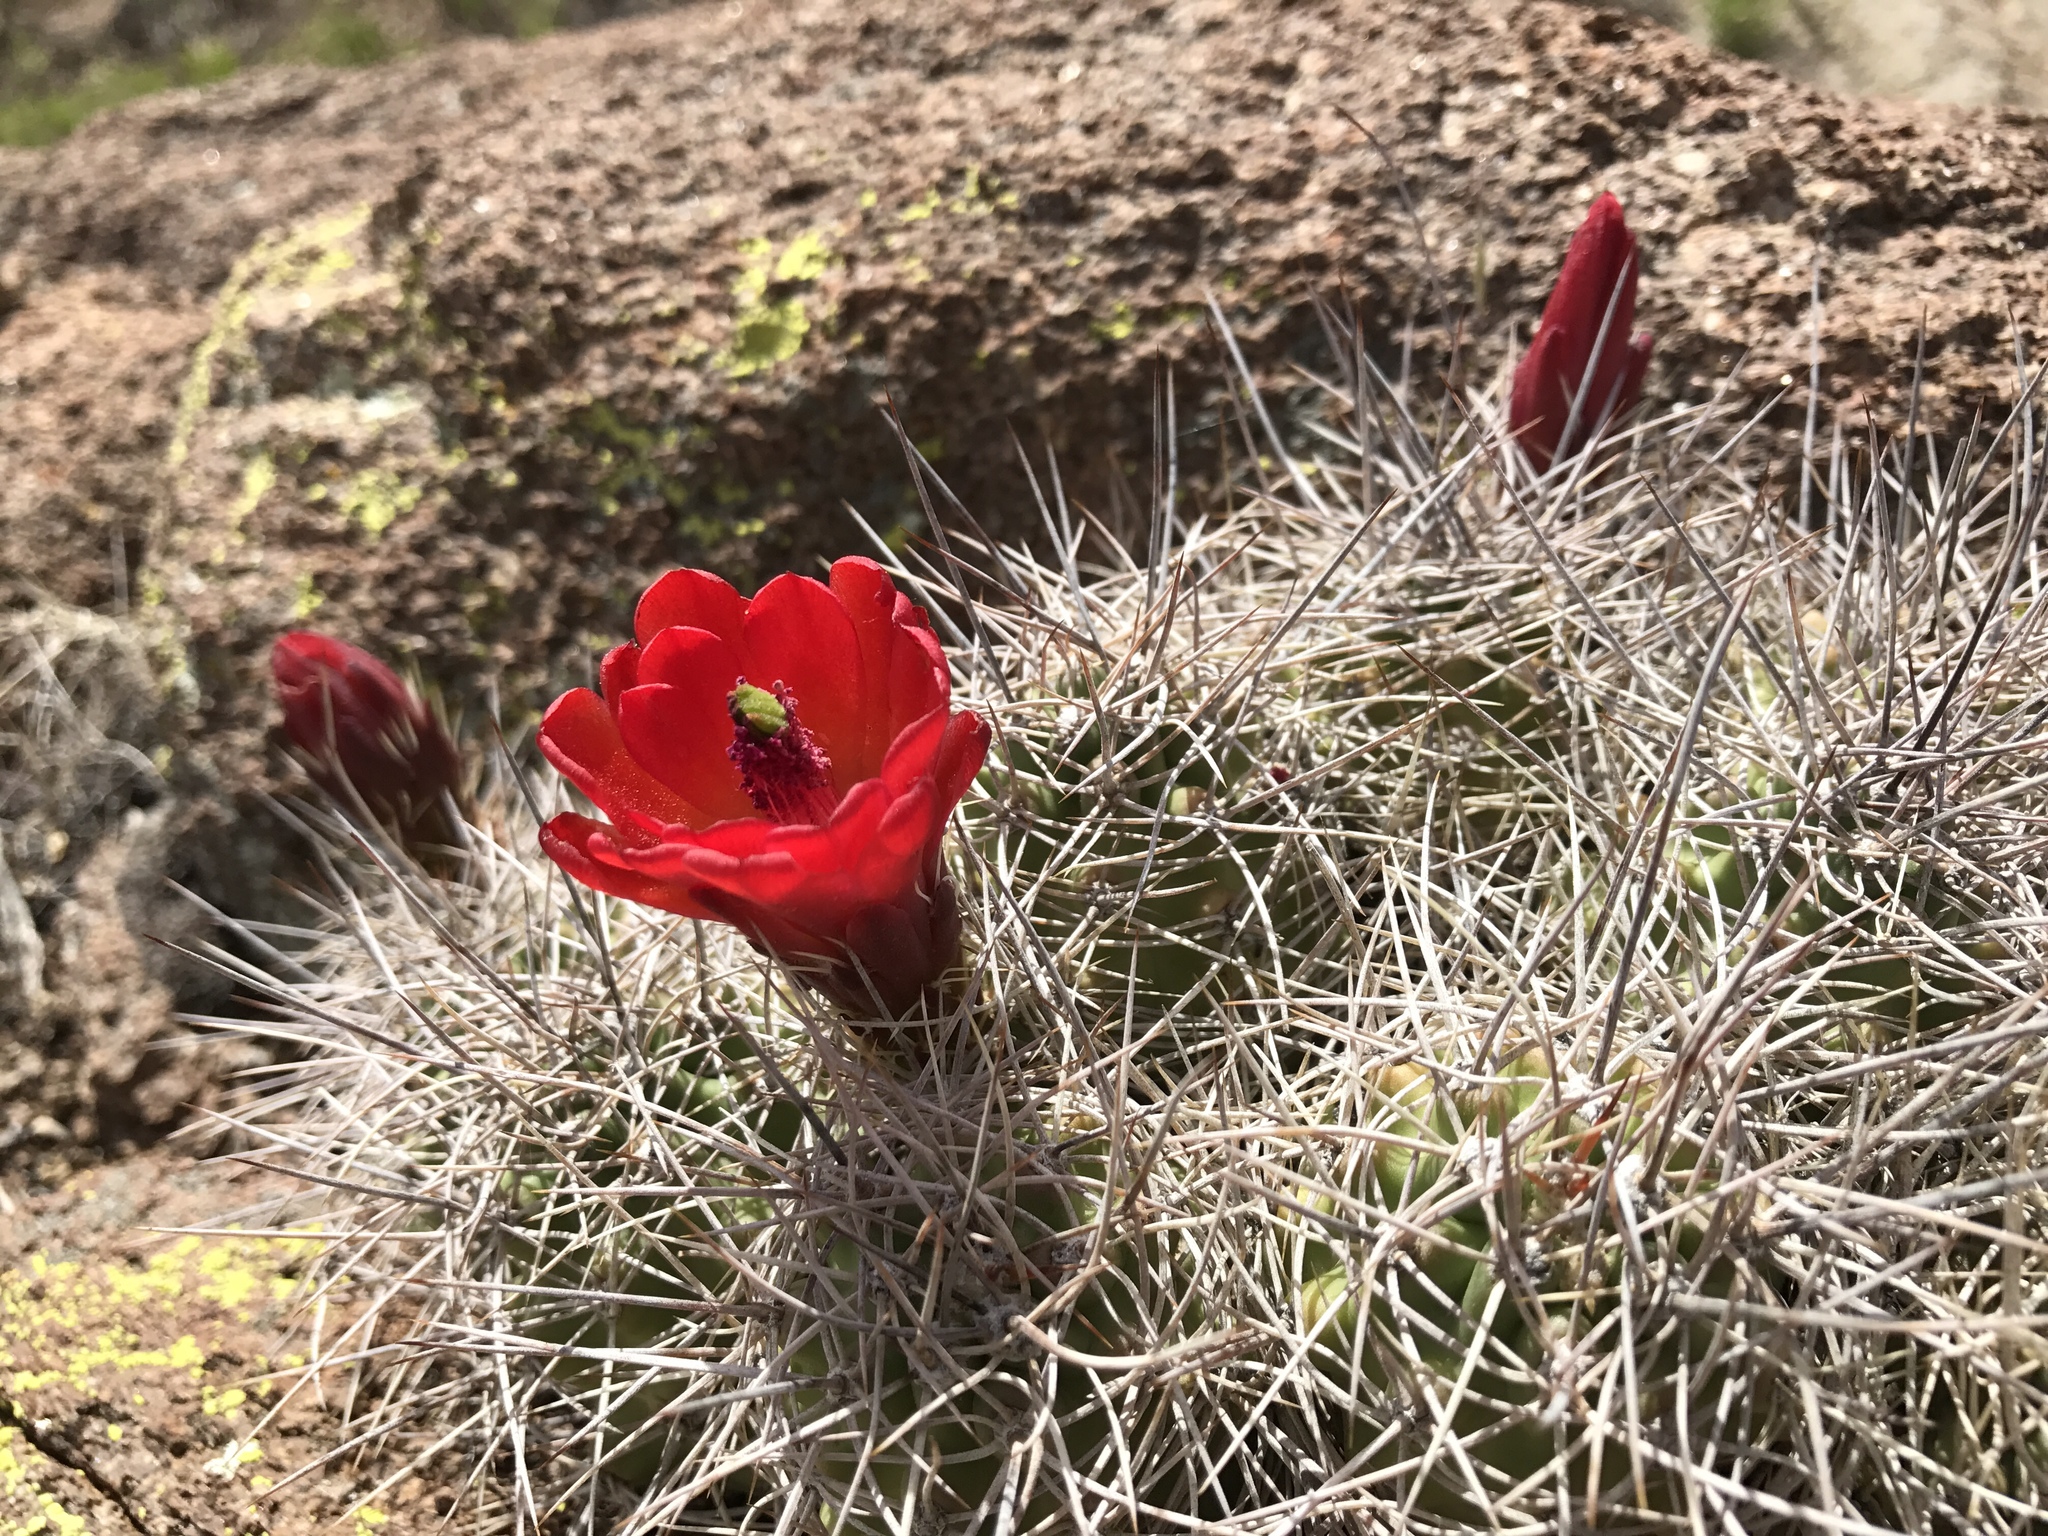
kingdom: Plantae
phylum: Tracheophyta
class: Magnoliopsida
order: Caryophyllales
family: Cactaceae
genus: Echinocereus
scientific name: Echinocereus triglochidiatus
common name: Claretcup hedgehog
